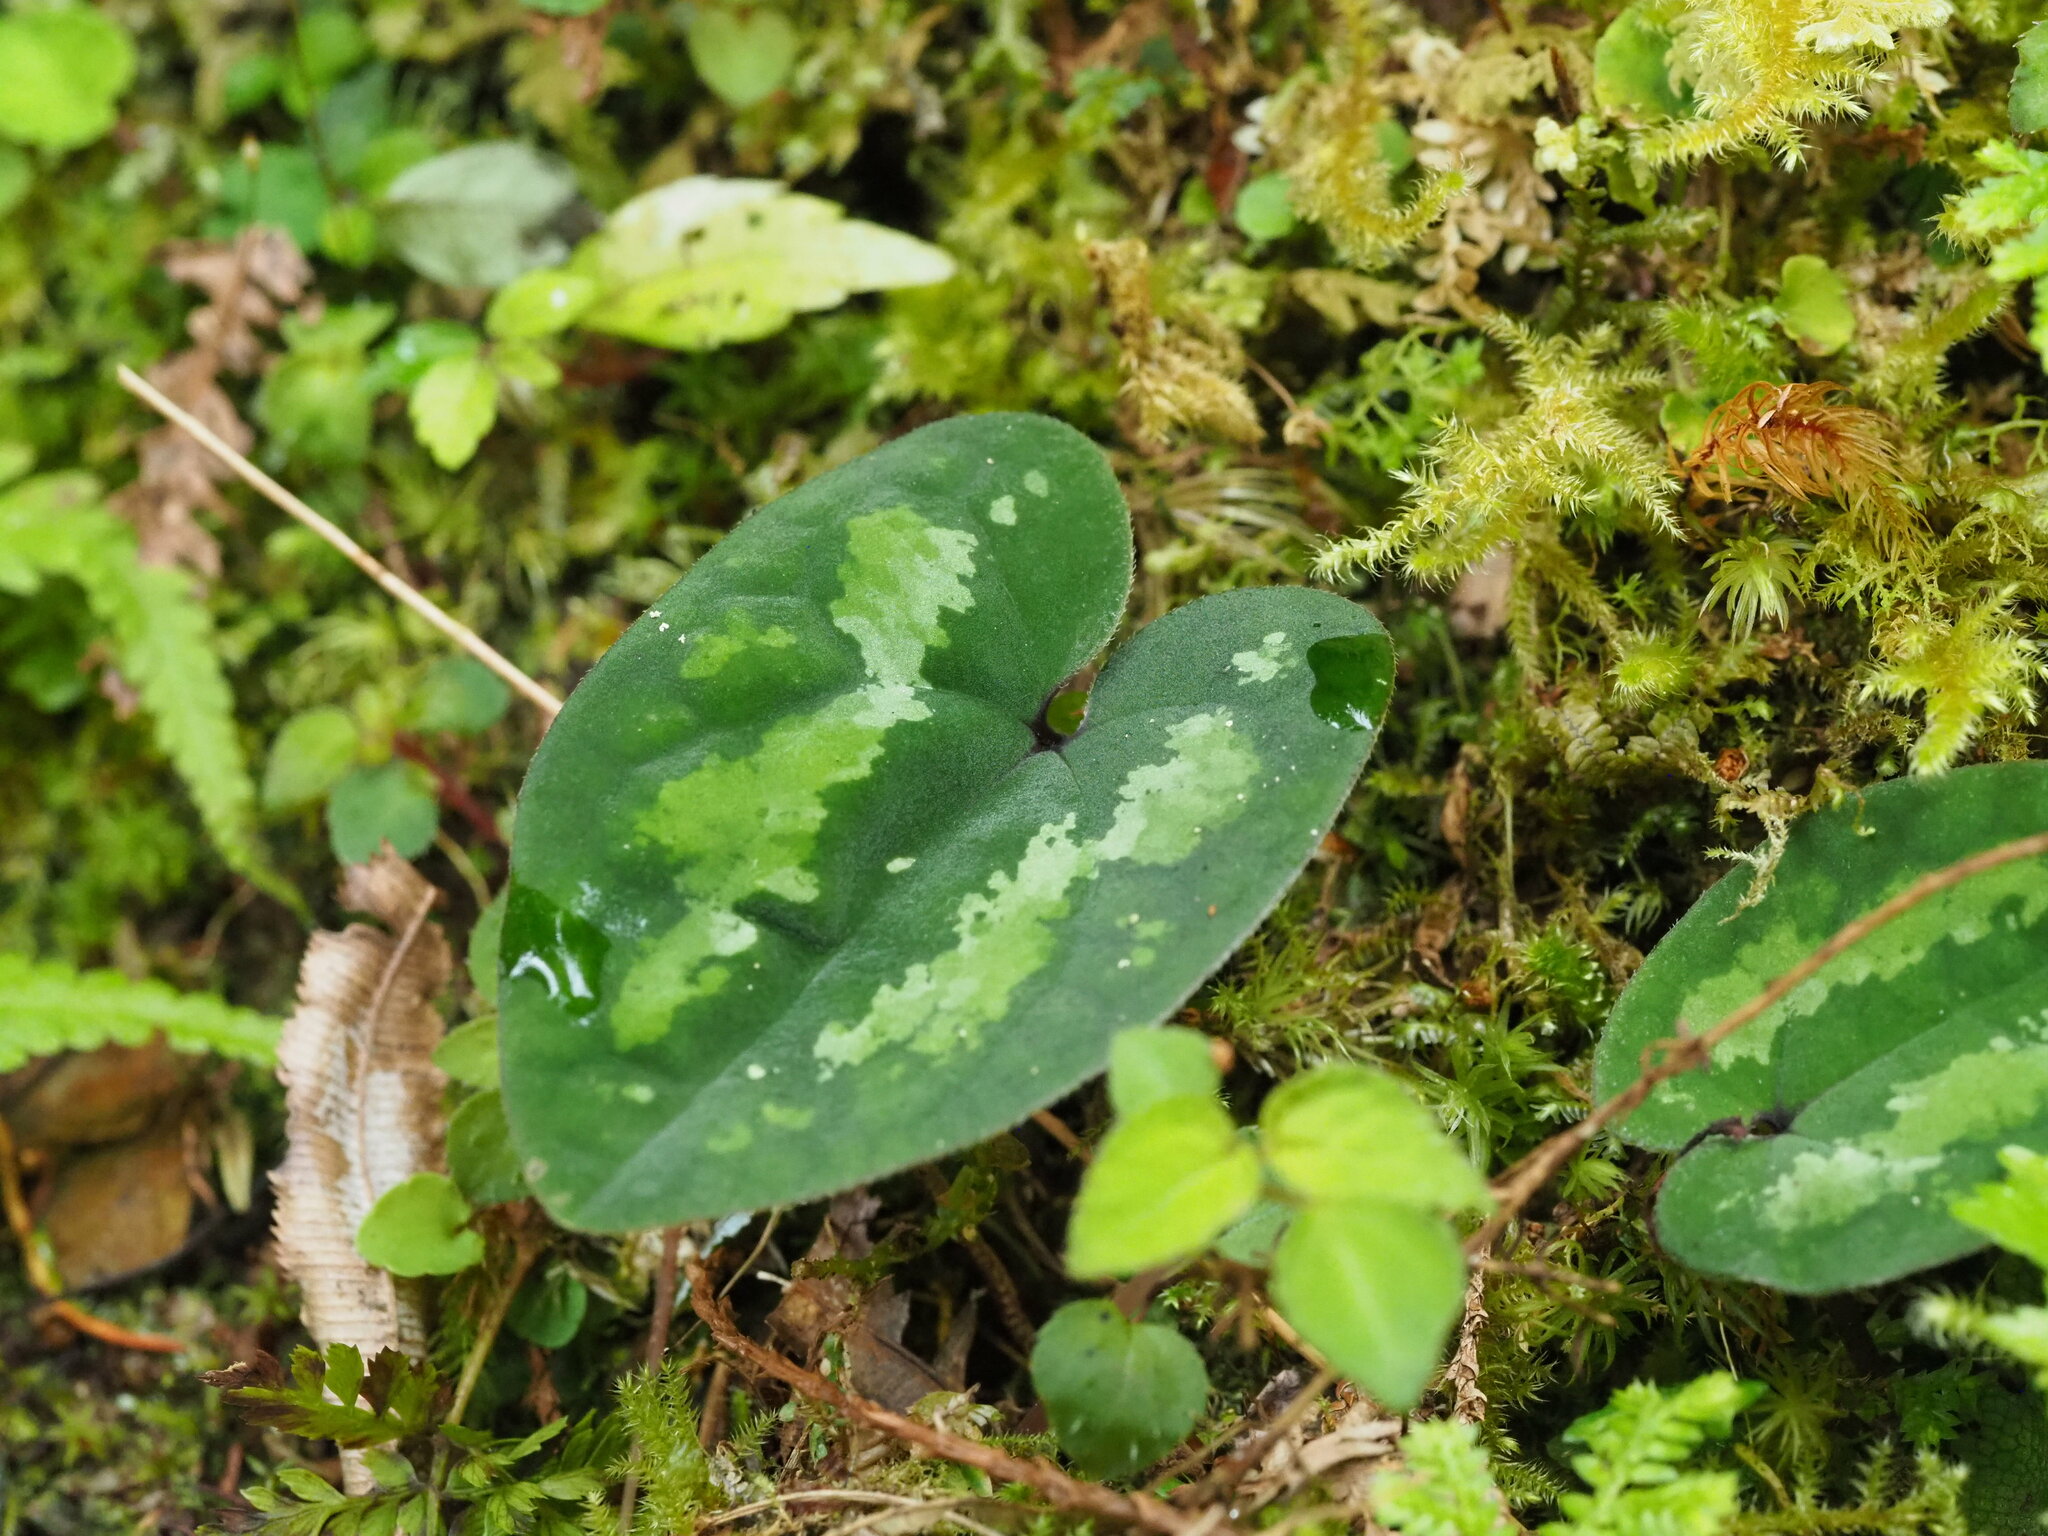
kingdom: Plantae
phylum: Tracheophyta
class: Magnoliopsida
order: Piperales
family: Aristolochiaceae
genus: Asarum
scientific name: Asarum macranthum
